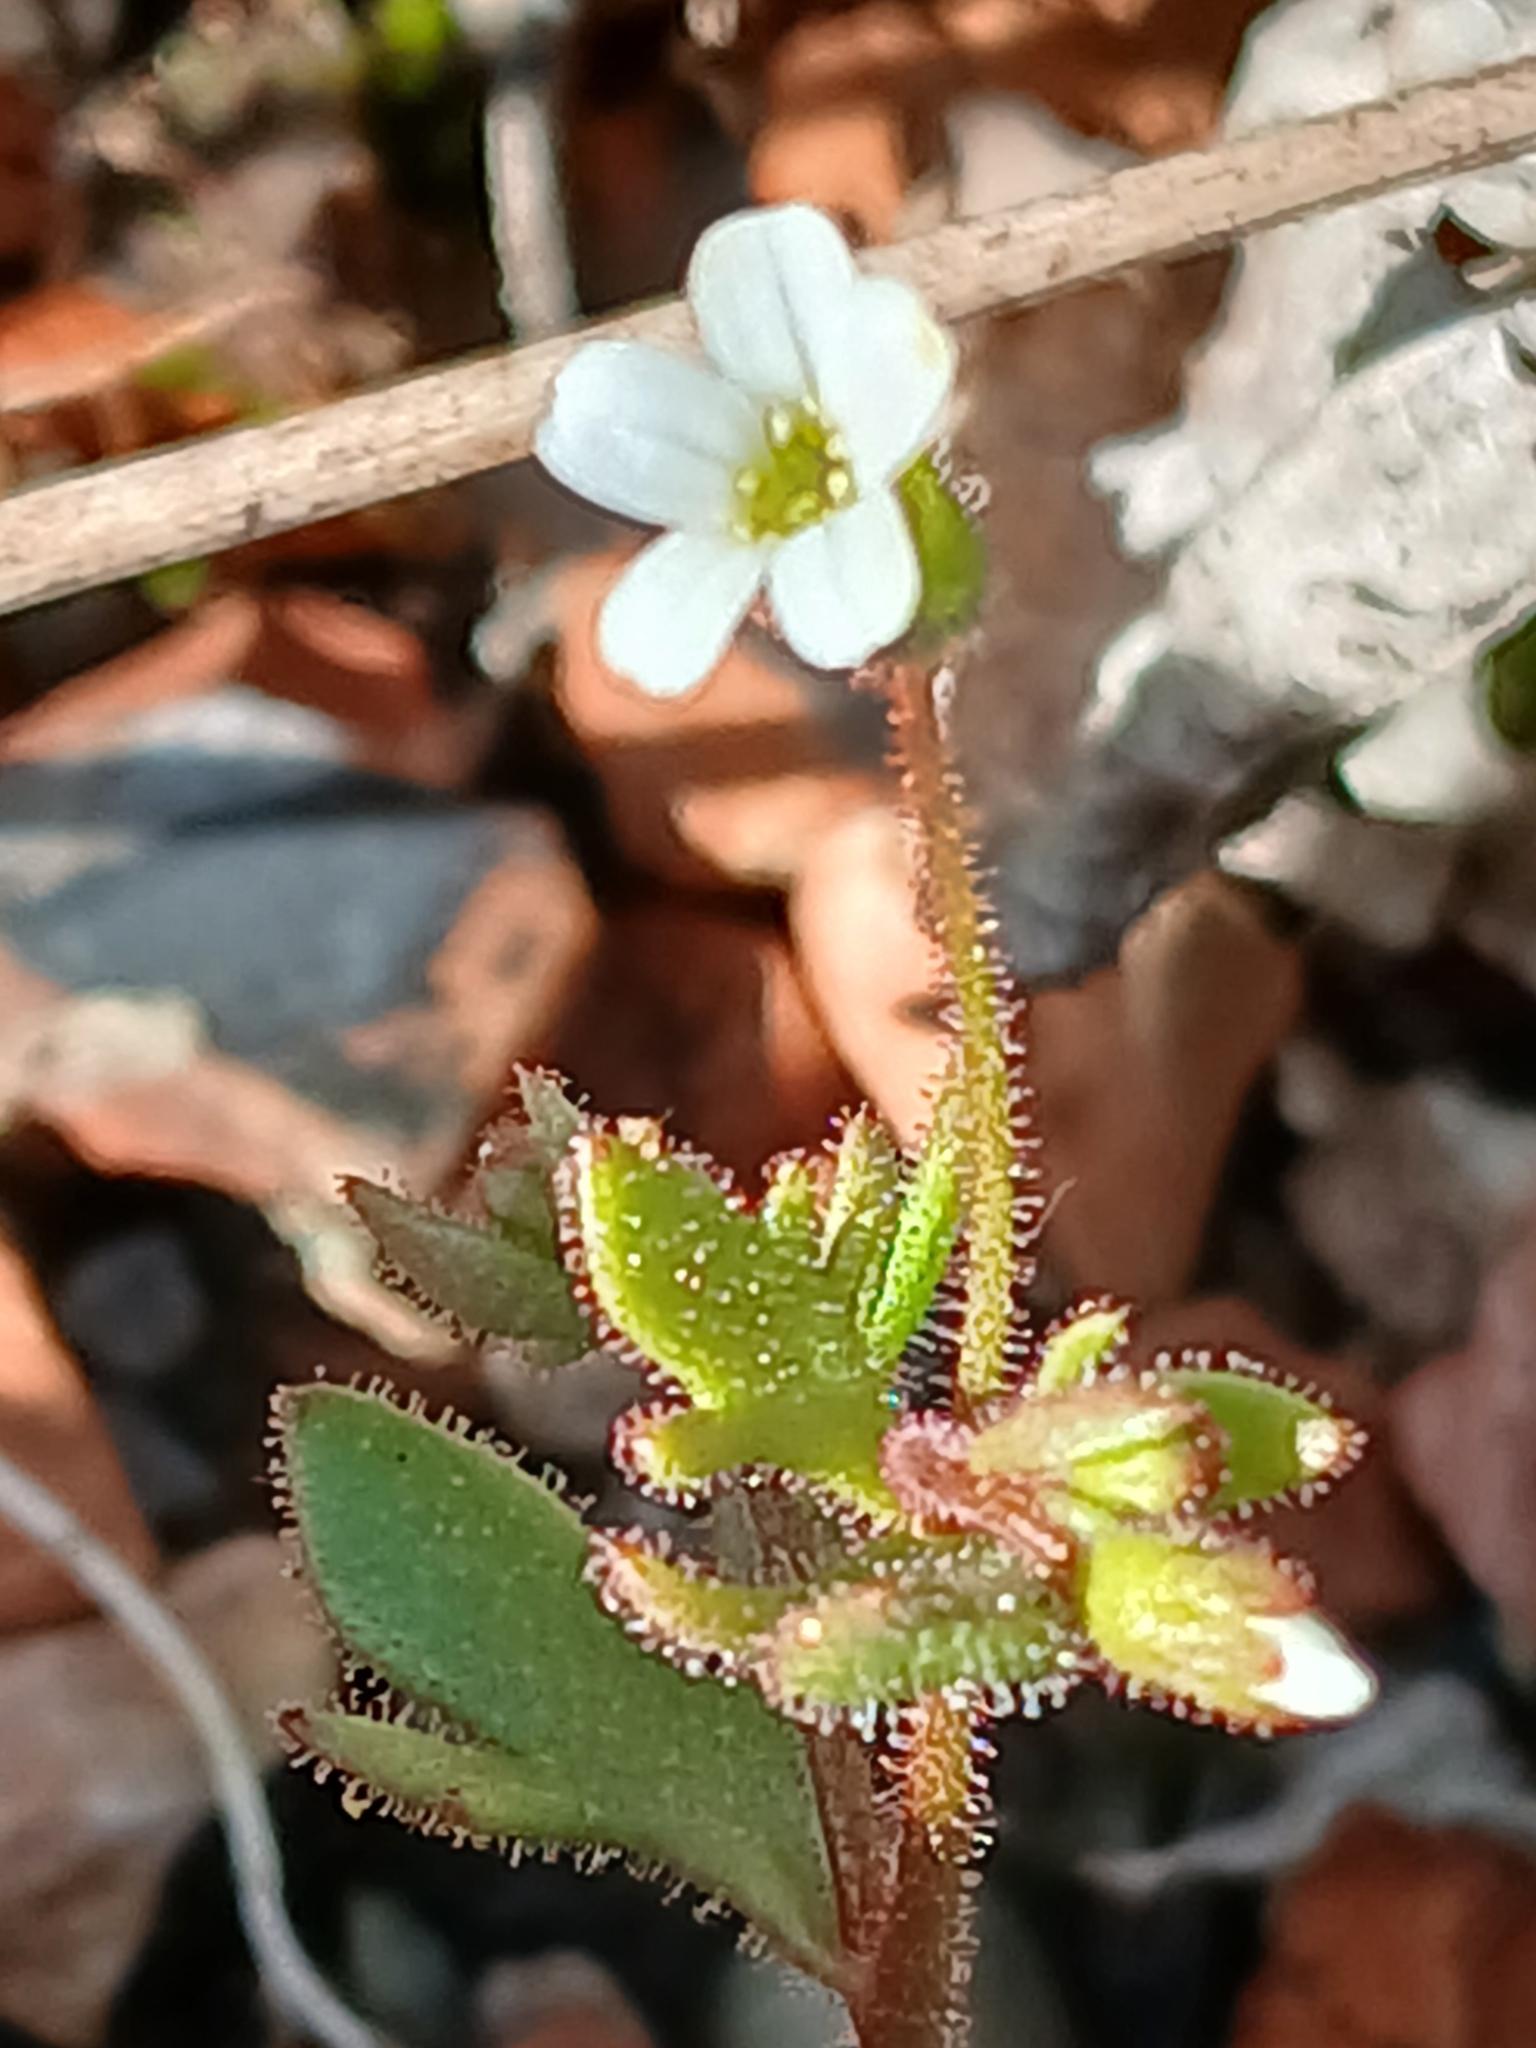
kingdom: Plantae
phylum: Tracheophyta
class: Magnoliopsida
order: Saxifragales
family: Saxifragaceae
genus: Saxifraga
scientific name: Saxifraga tridactylites
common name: Rue-leaved saxifrage
